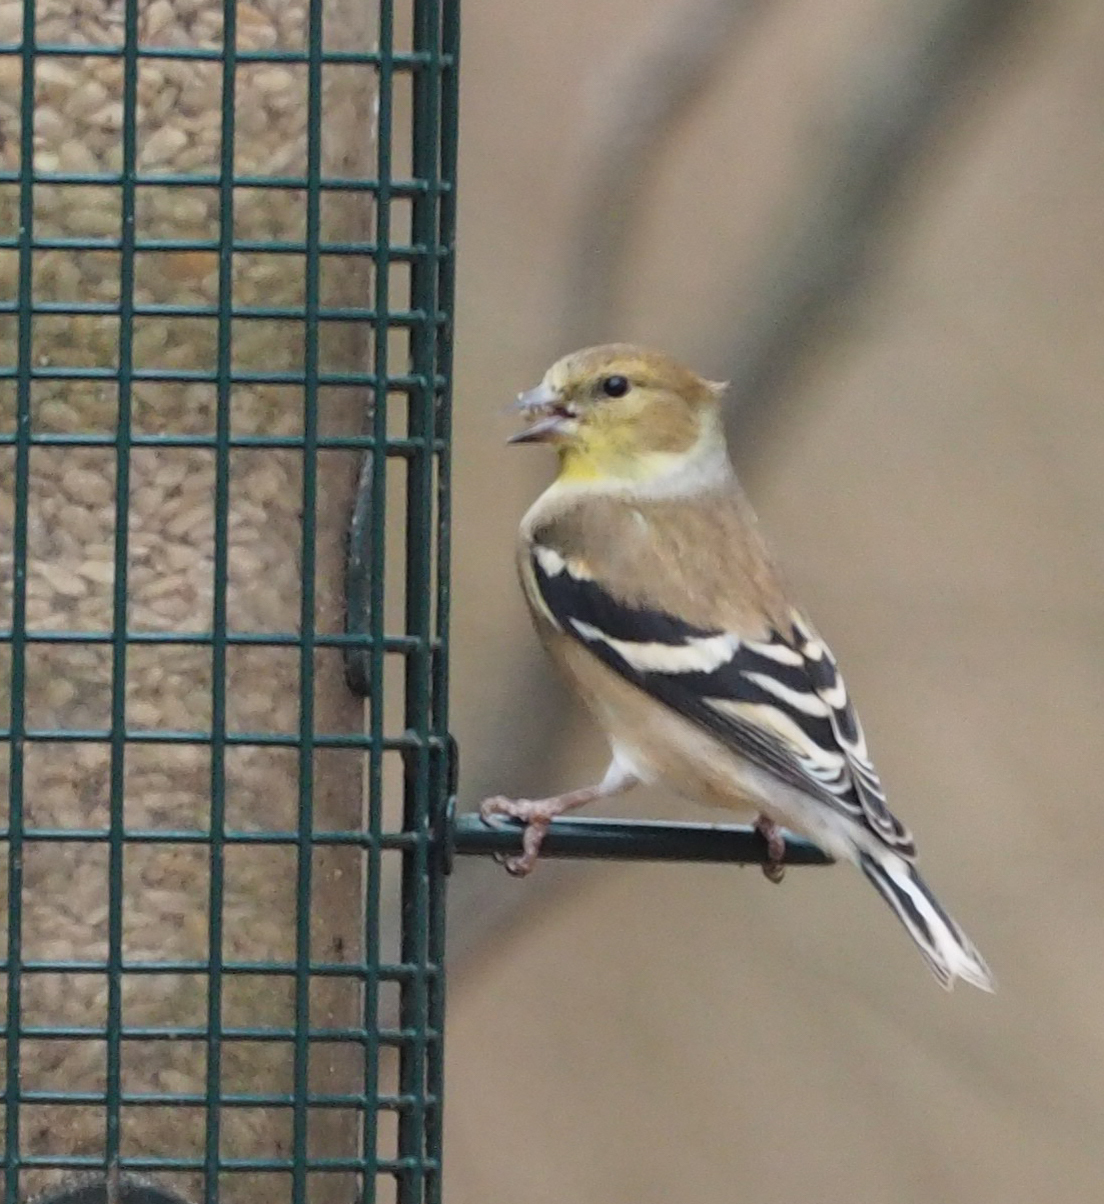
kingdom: Animalia
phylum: Chordata
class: Aves
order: Passeriformes
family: Fringillidae
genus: Spinus
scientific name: Spinus tristis
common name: American goldfinch
